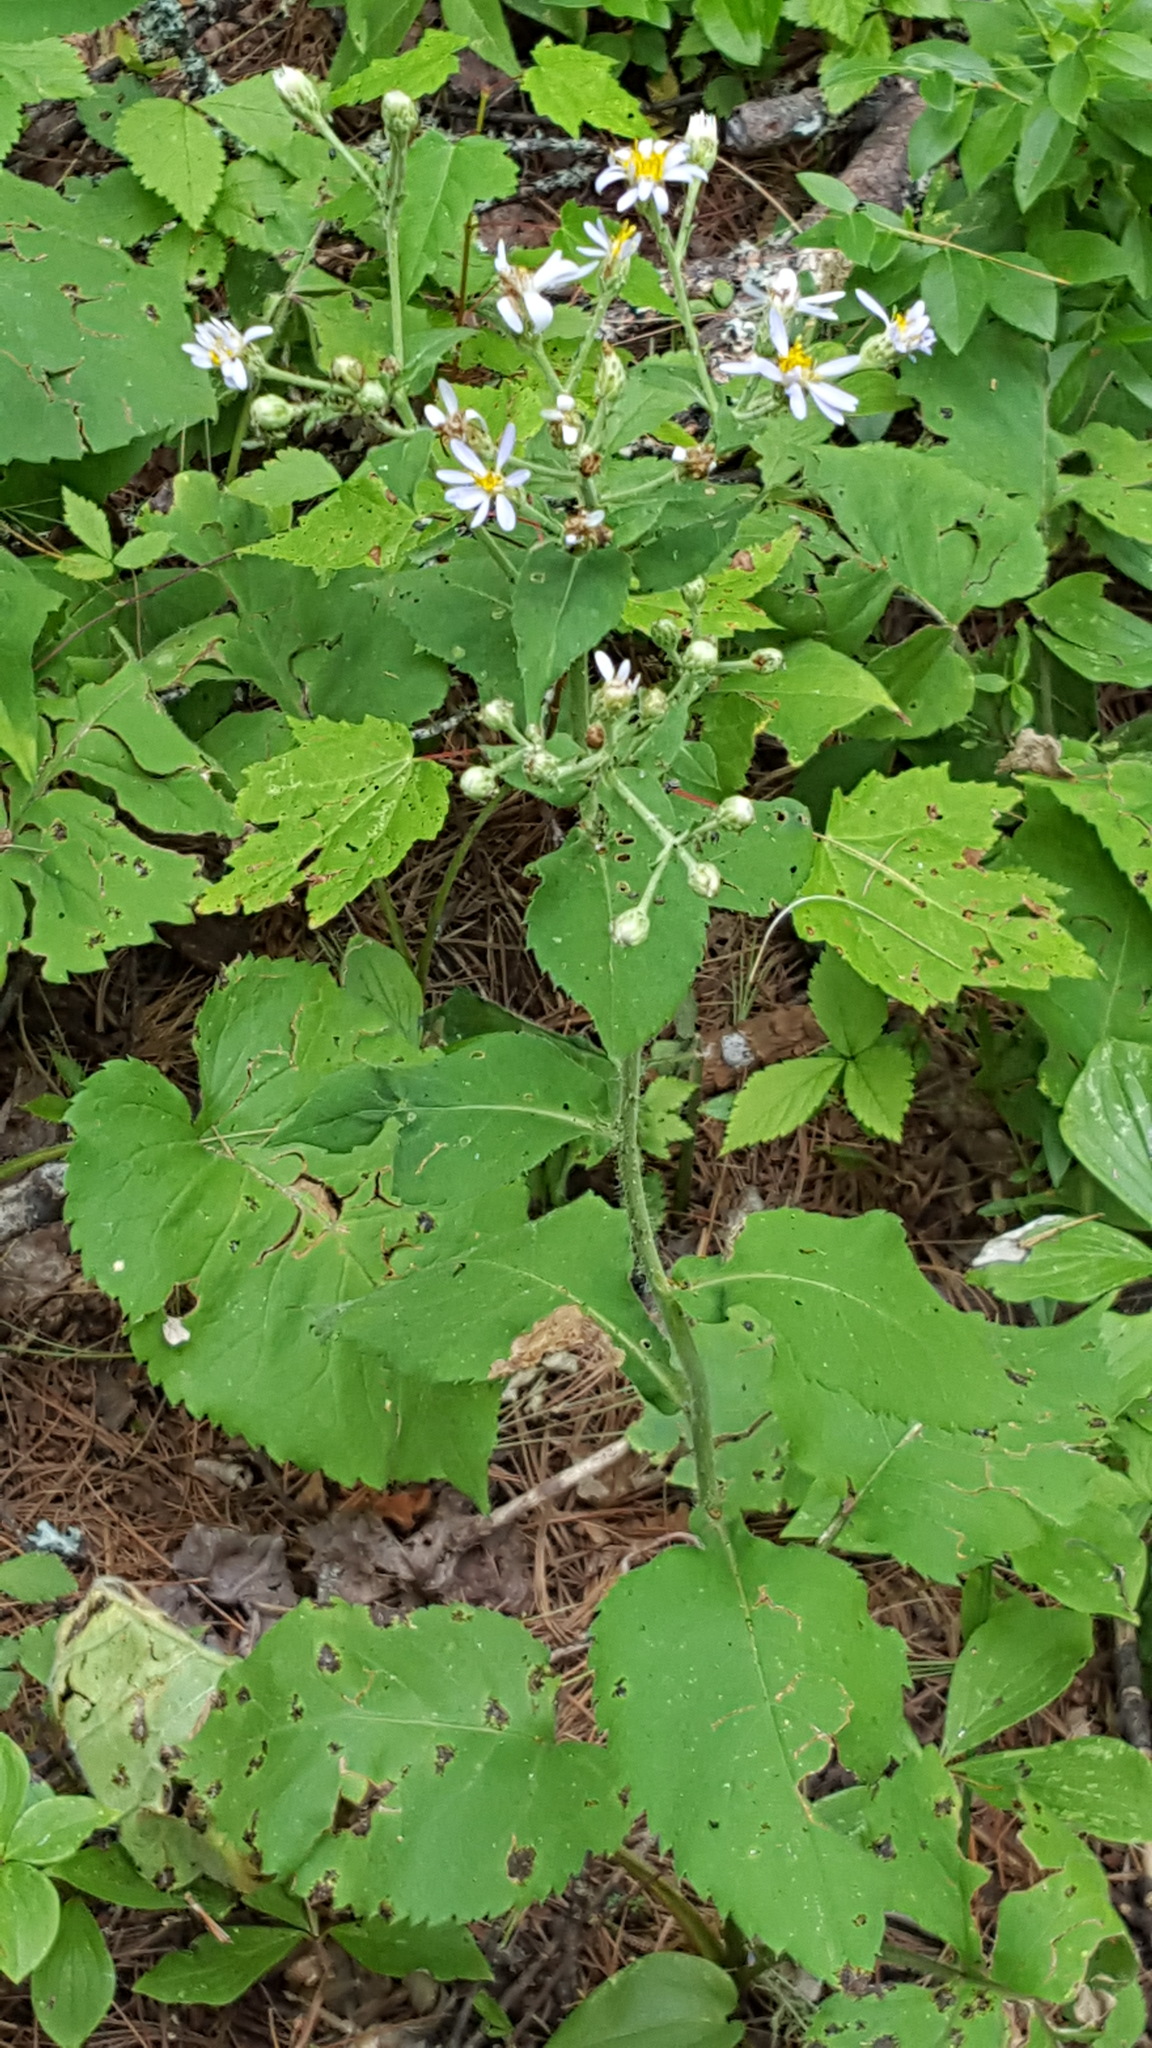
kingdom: Plantae
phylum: Tracheophyta
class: Magnoliopsida
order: Asterales
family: Asteraceae
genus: Eurybia
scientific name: Eurybia macrophylla
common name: Big-leaved aster
